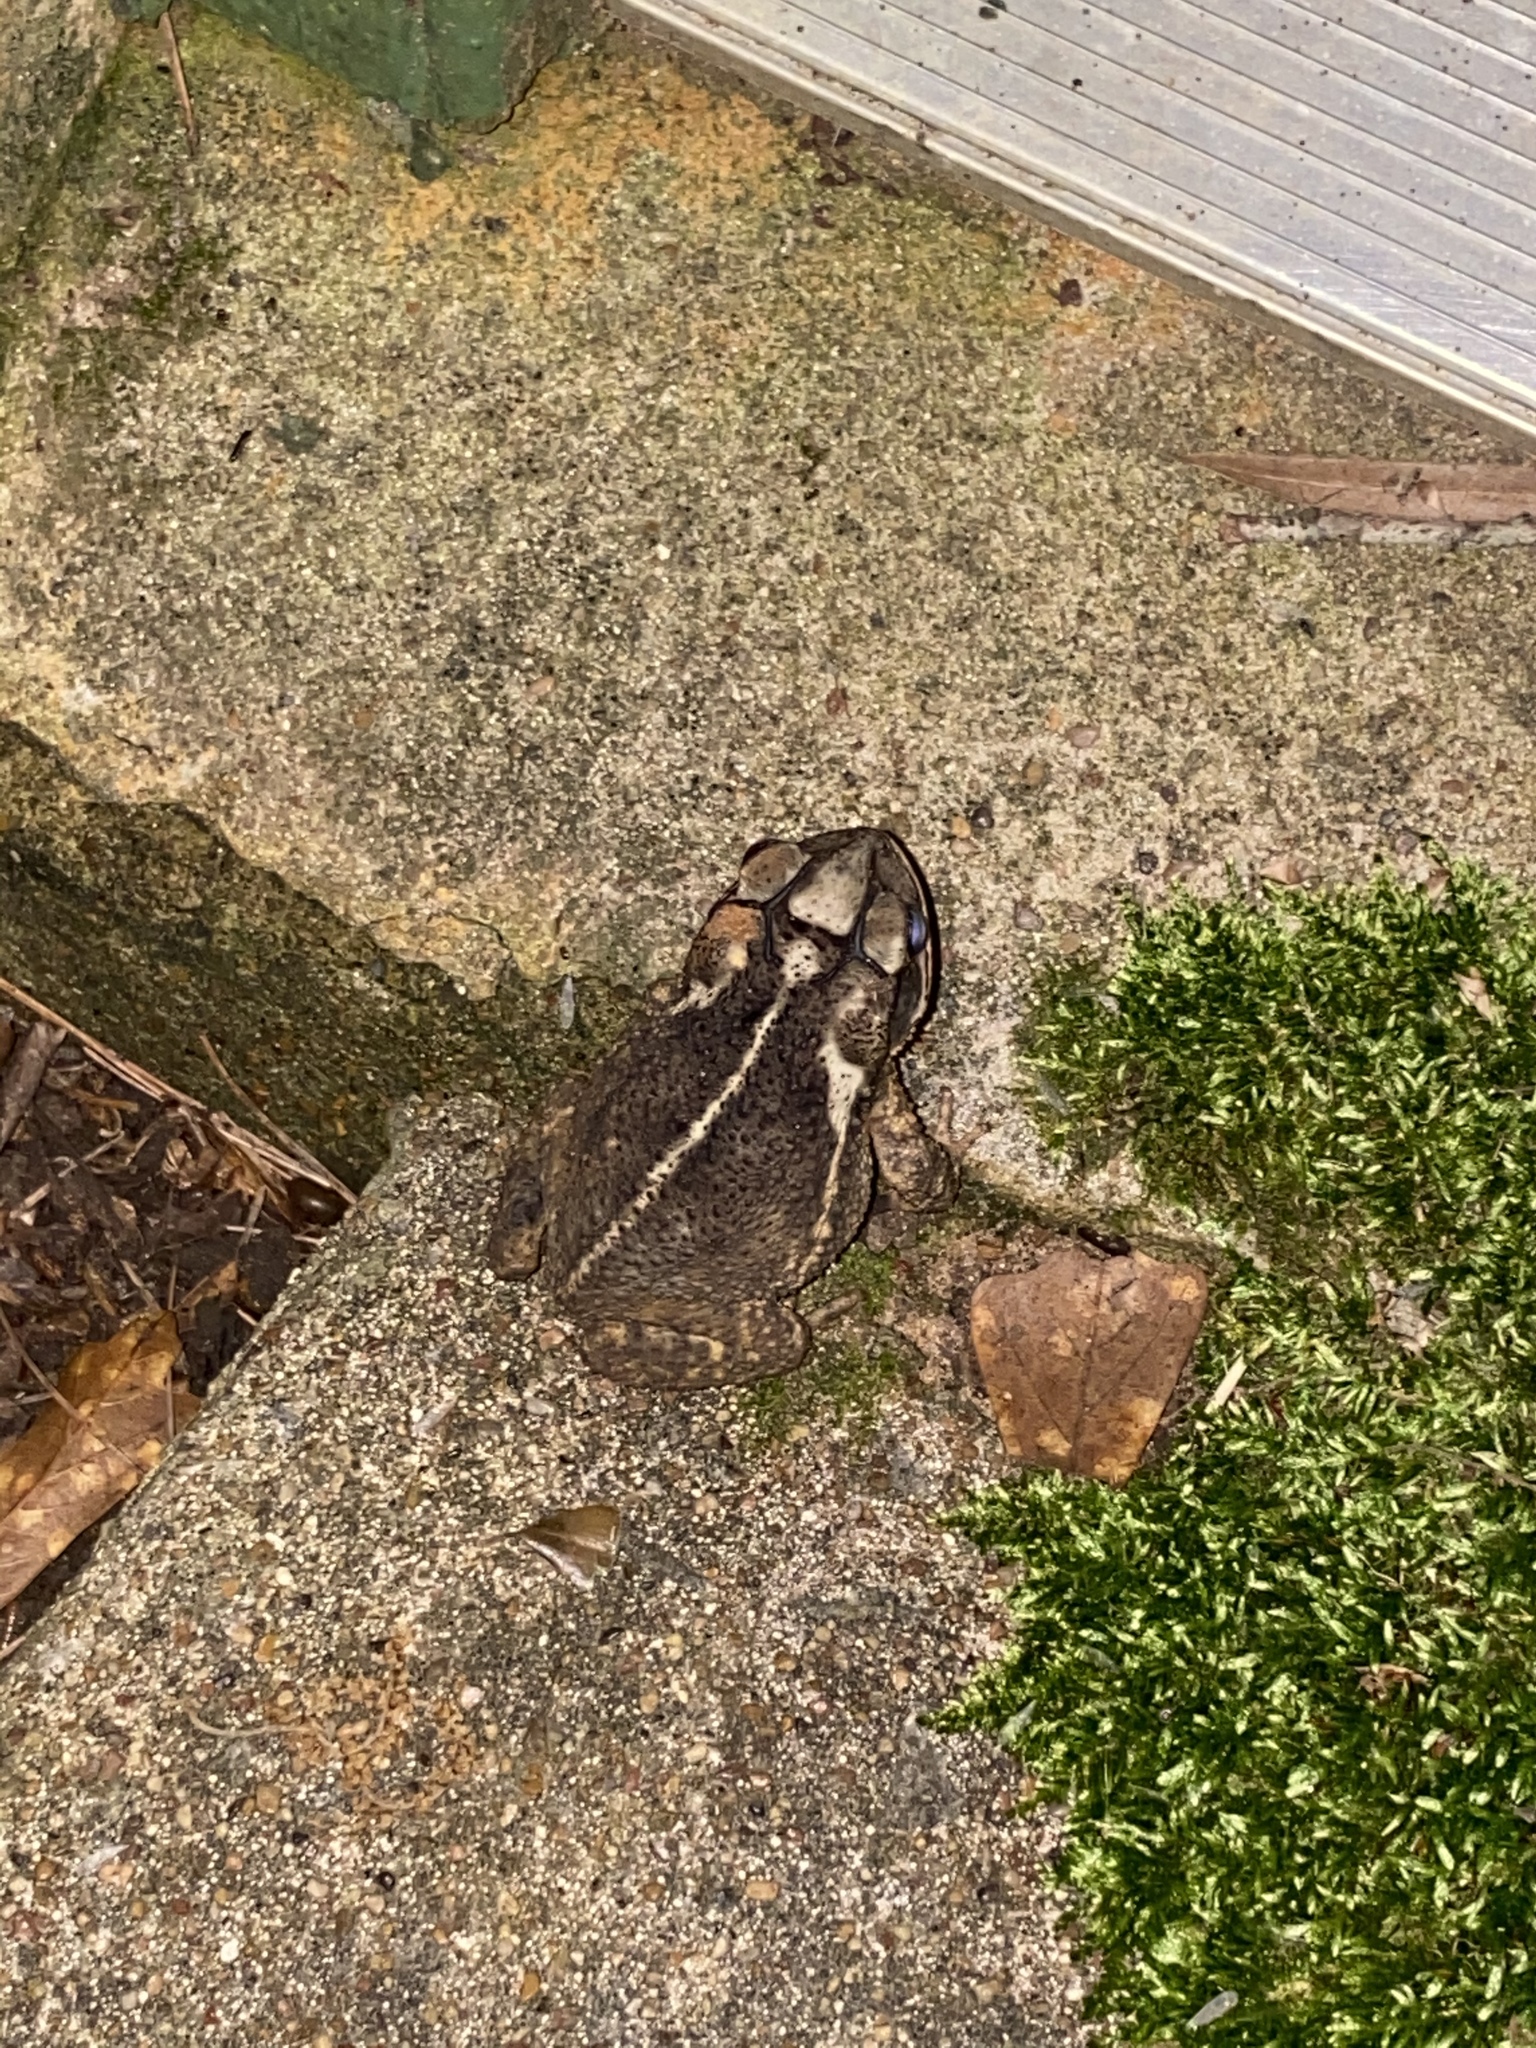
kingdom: Animalia
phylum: Chordata
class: Amphibia
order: Anura
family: Bufonidae
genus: Incilius
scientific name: Incilius nebulifer
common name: Gulf coast toad
